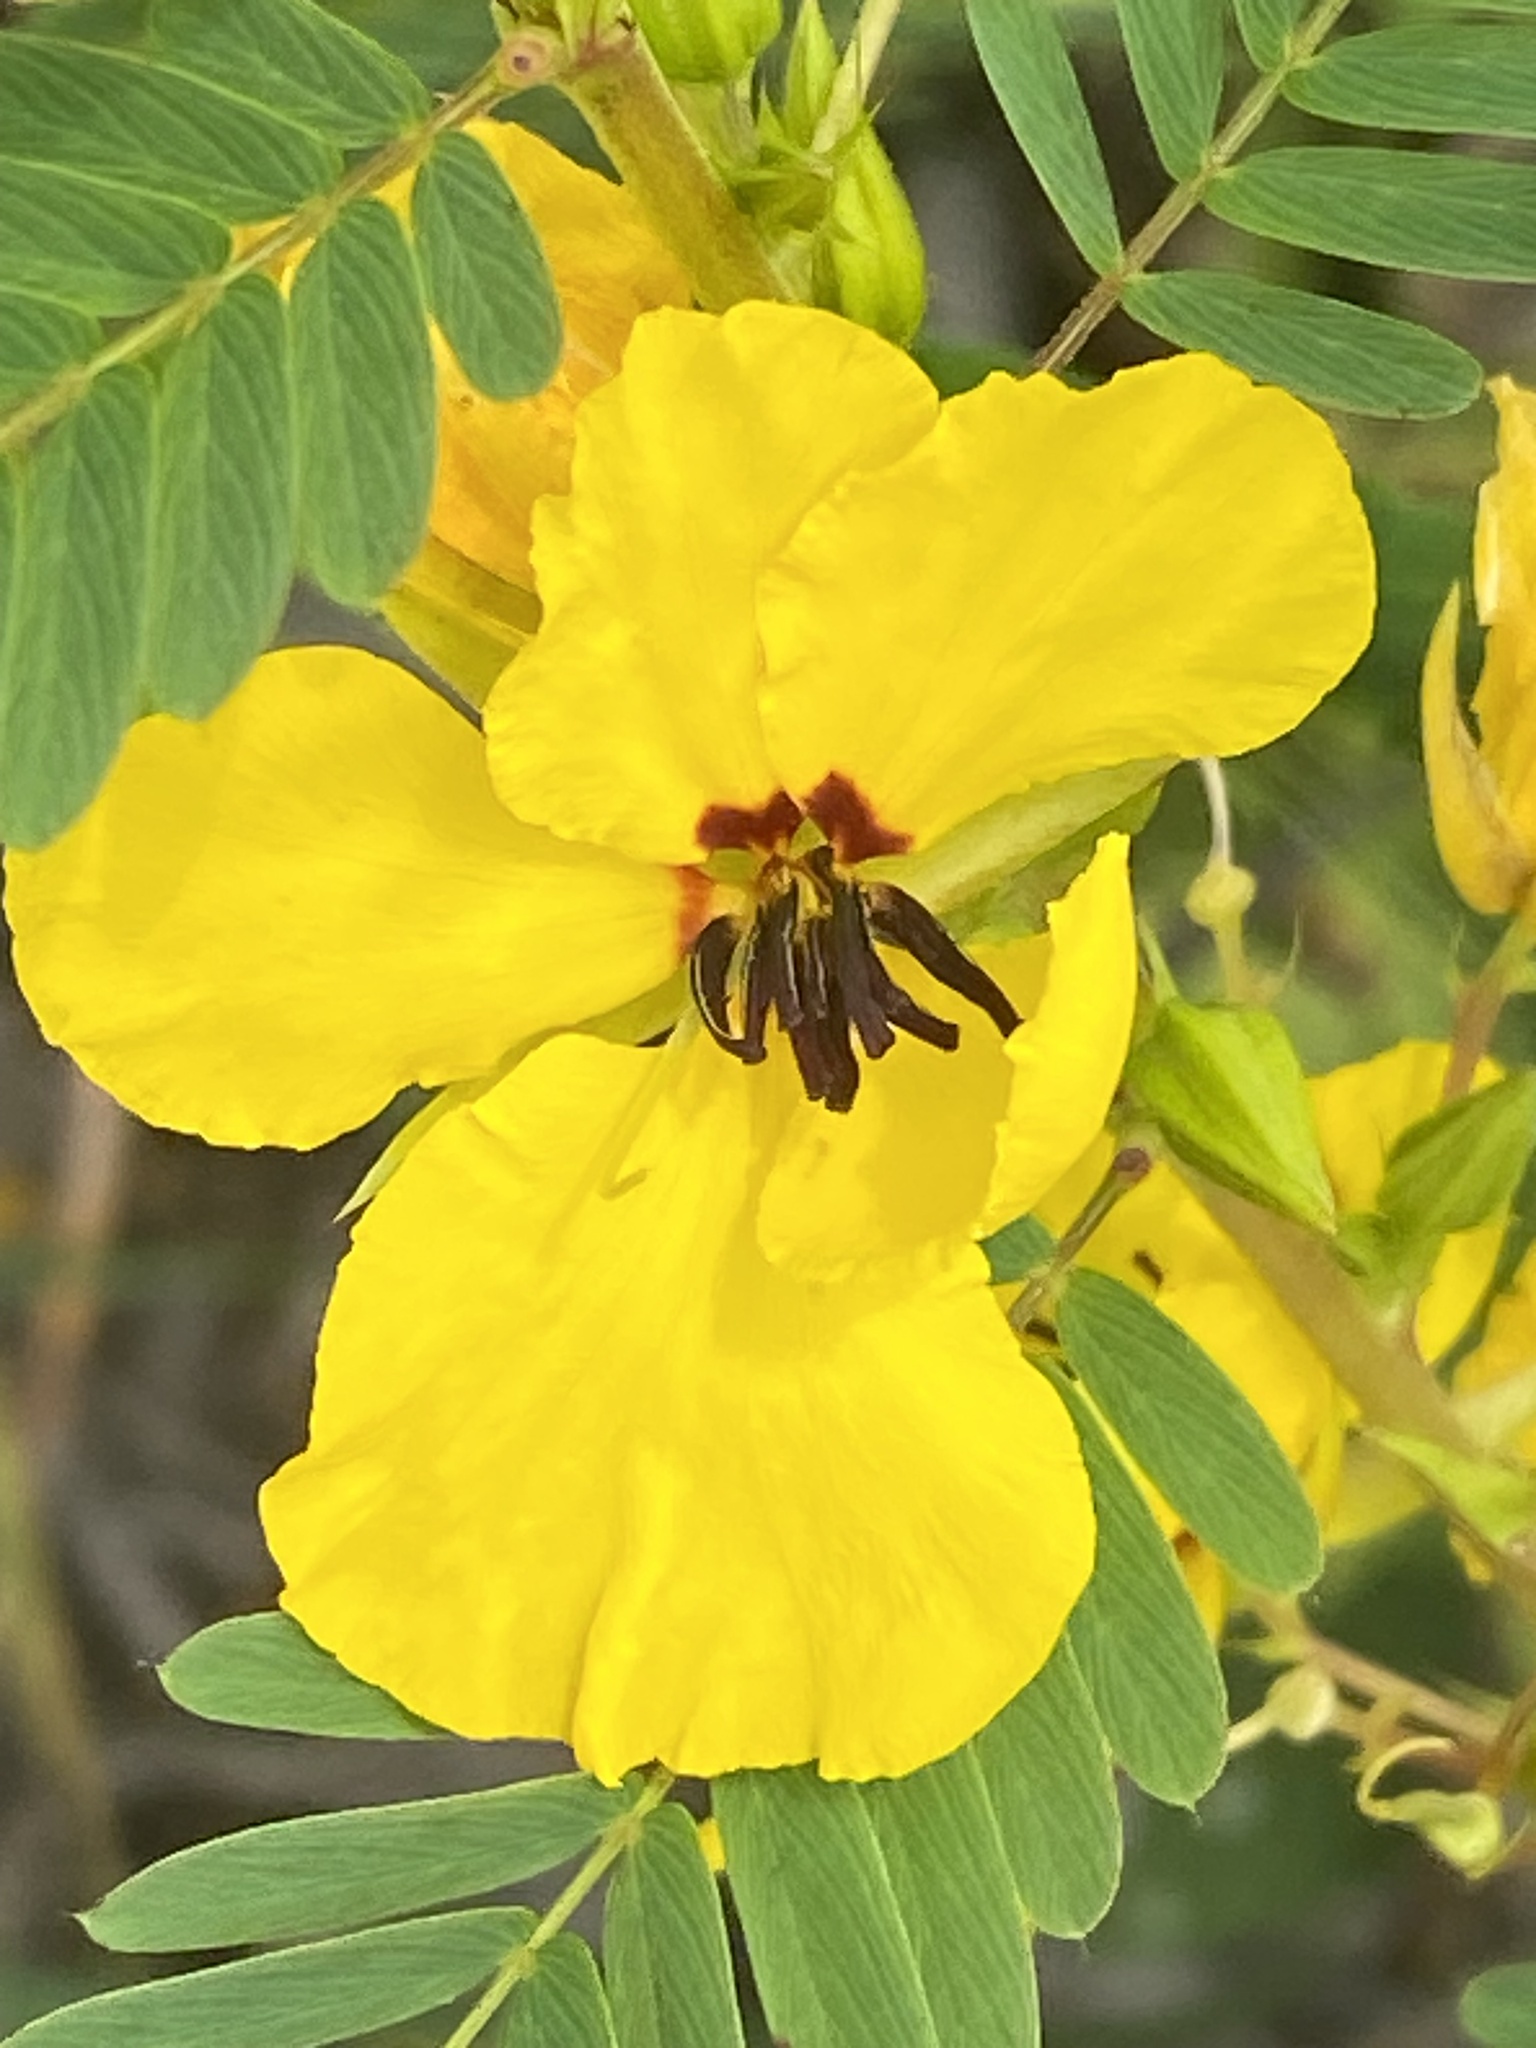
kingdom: Plantae
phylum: Tracheophyta
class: Magnoliopsida
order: Fabales
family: Fabaceae
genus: Chamaecrista
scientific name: Chamaecrista fasciculata
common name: Golden cassia
